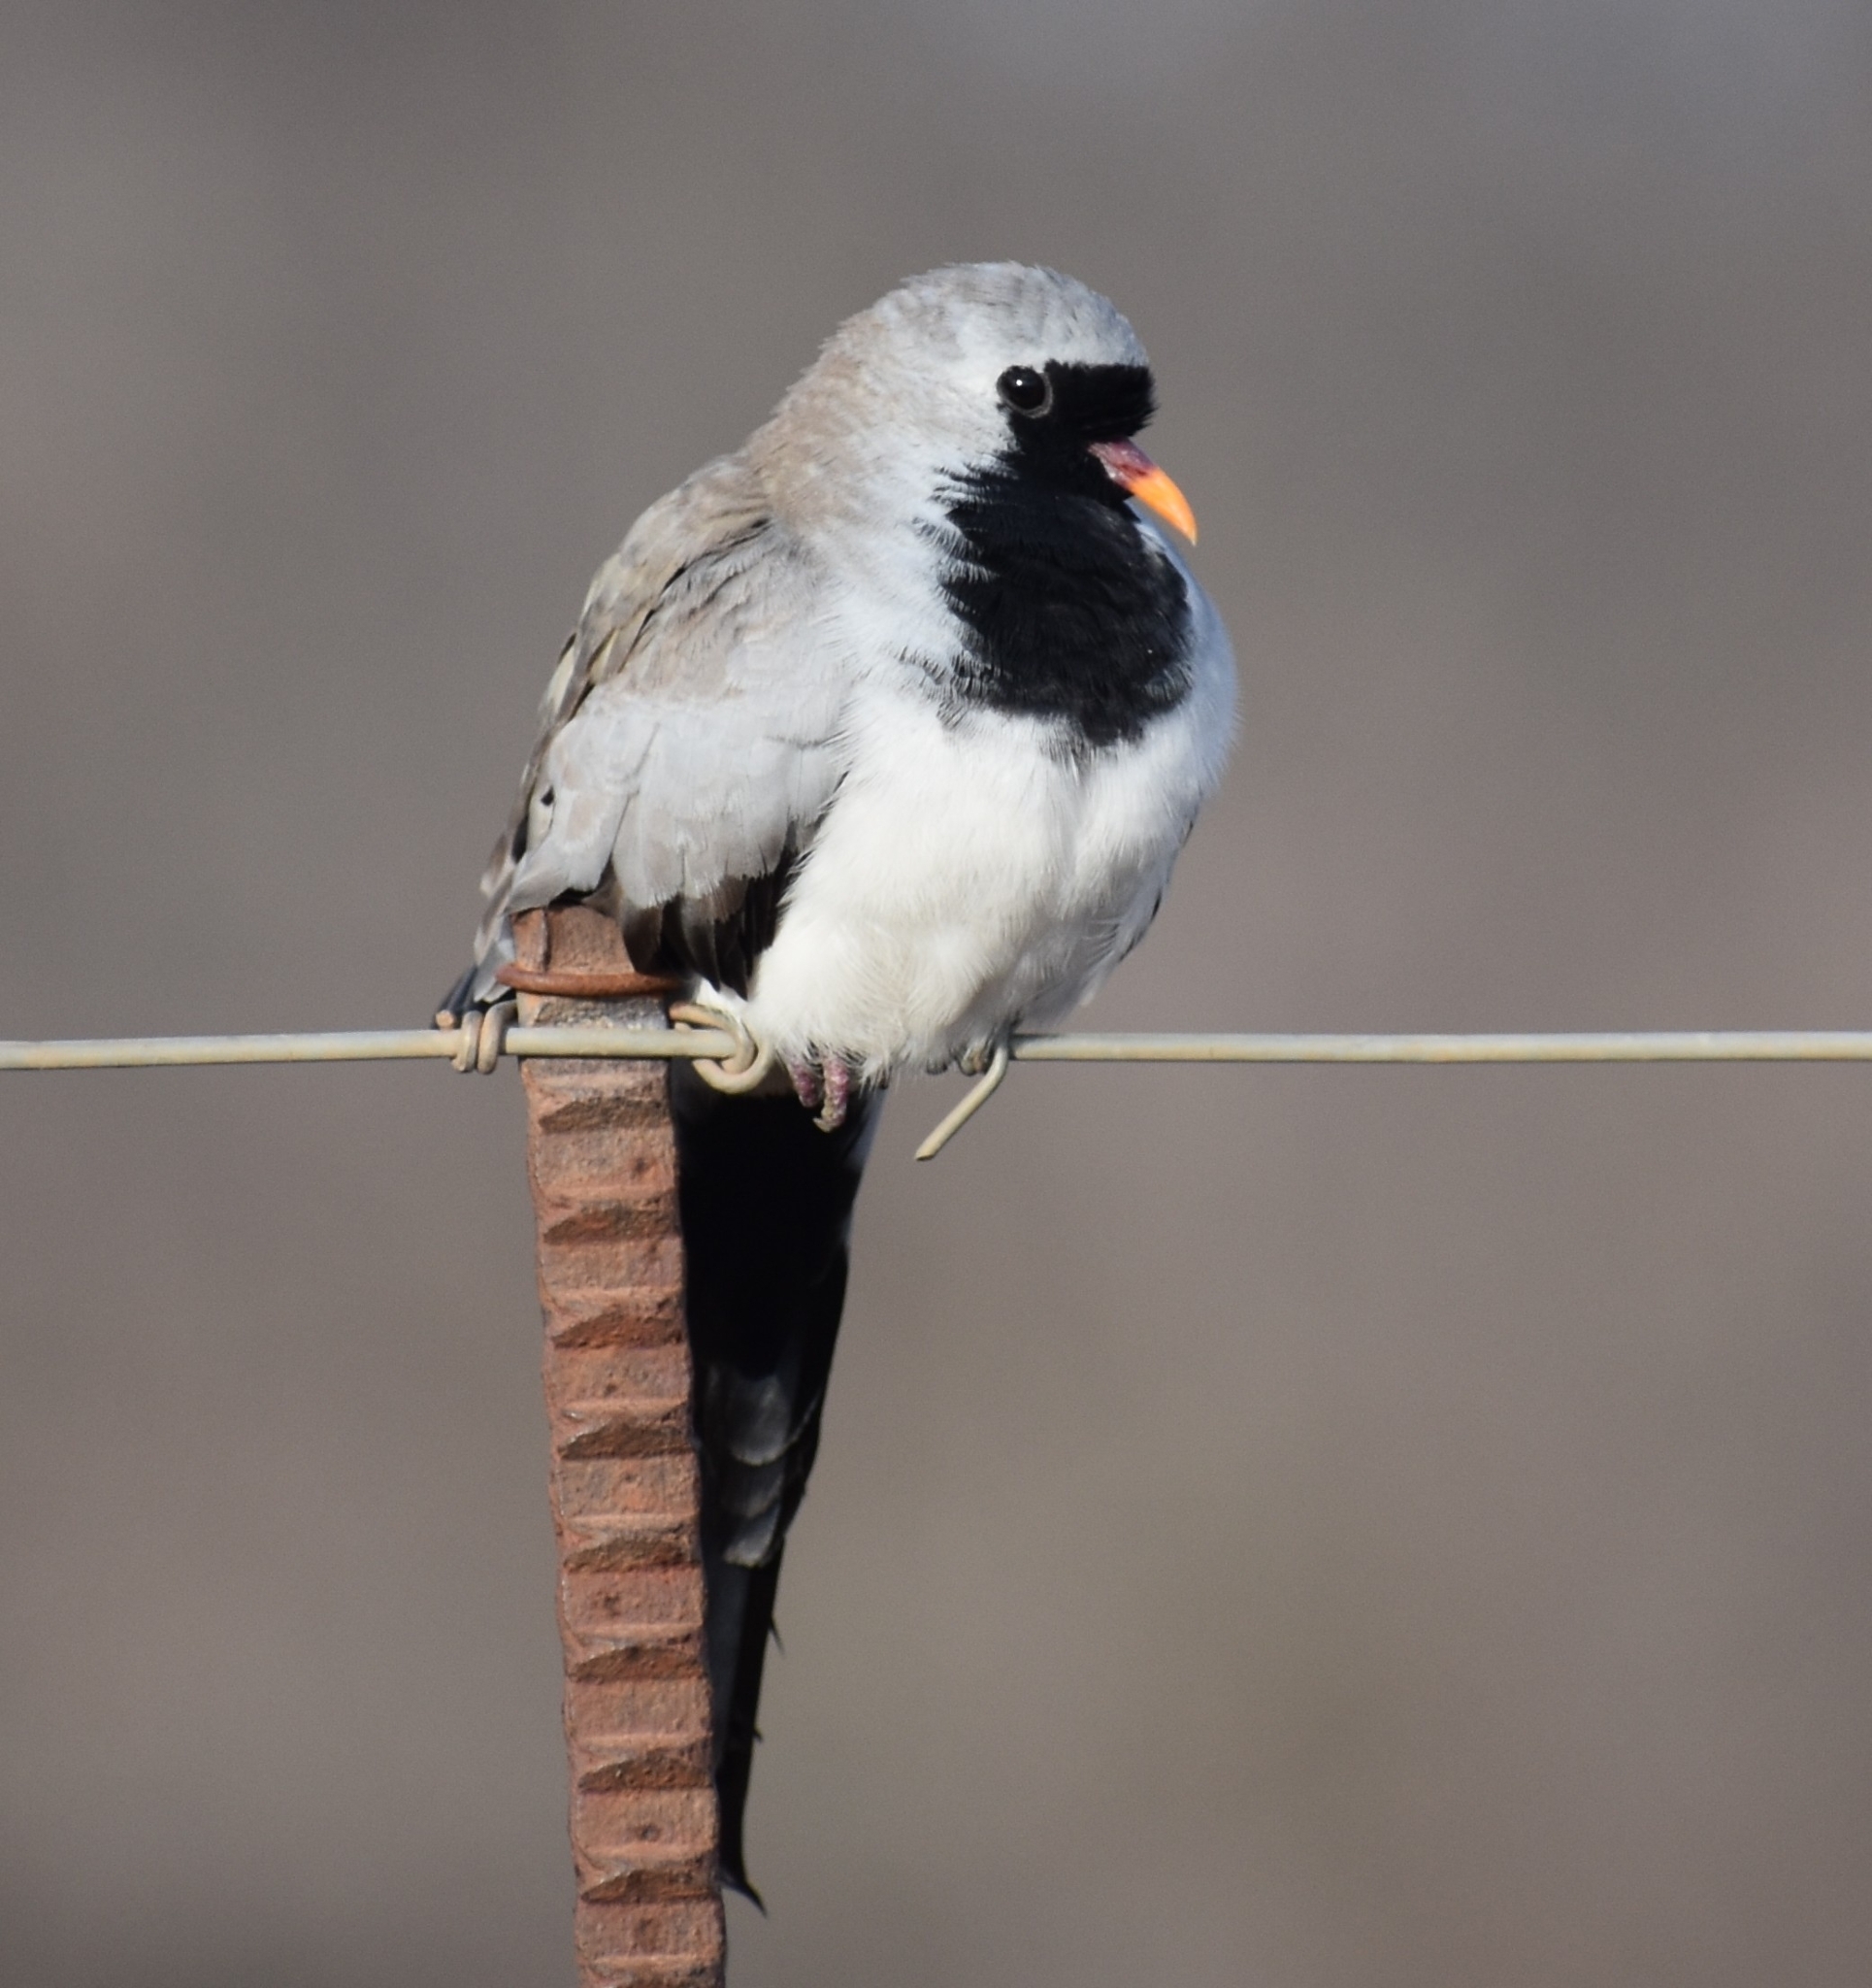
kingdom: Animalia
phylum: Chordata
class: Aves
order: Columbiformes
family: Columbidae
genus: Oena
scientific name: Oena capensis
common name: Namaqua dove
